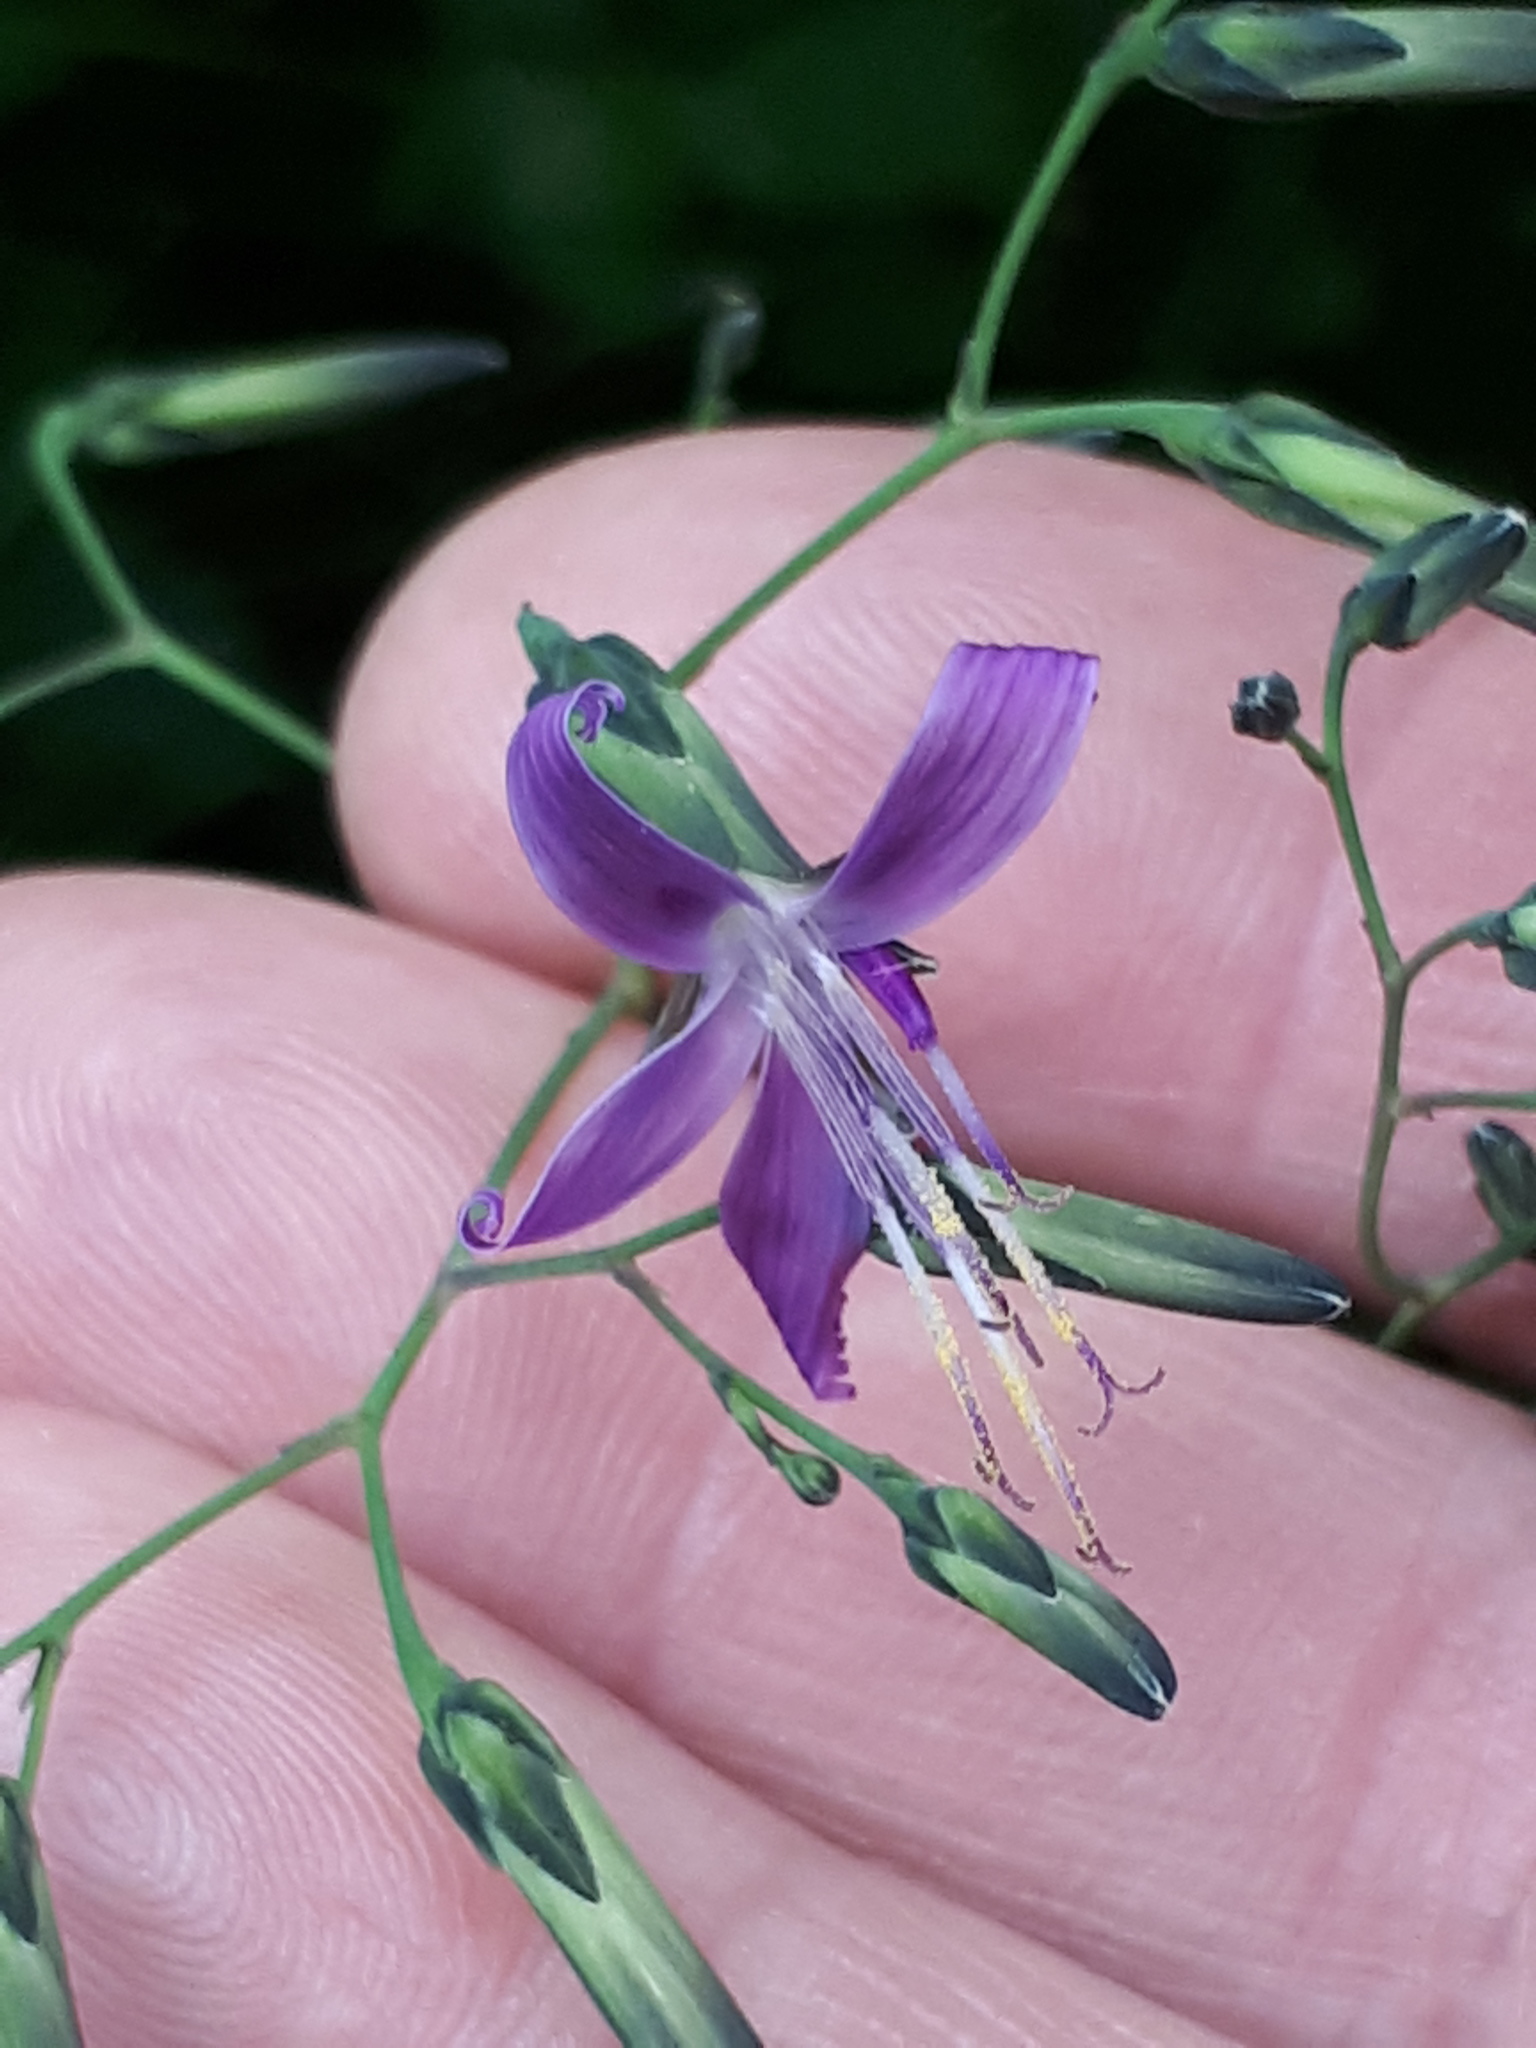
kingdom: Plantae
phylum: Tracheophyta
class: Magnoliopsida
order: Asterales
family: Asteraceae
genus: Prenanthes
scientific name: Prenanthes purpurea
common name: Purple lettuce
